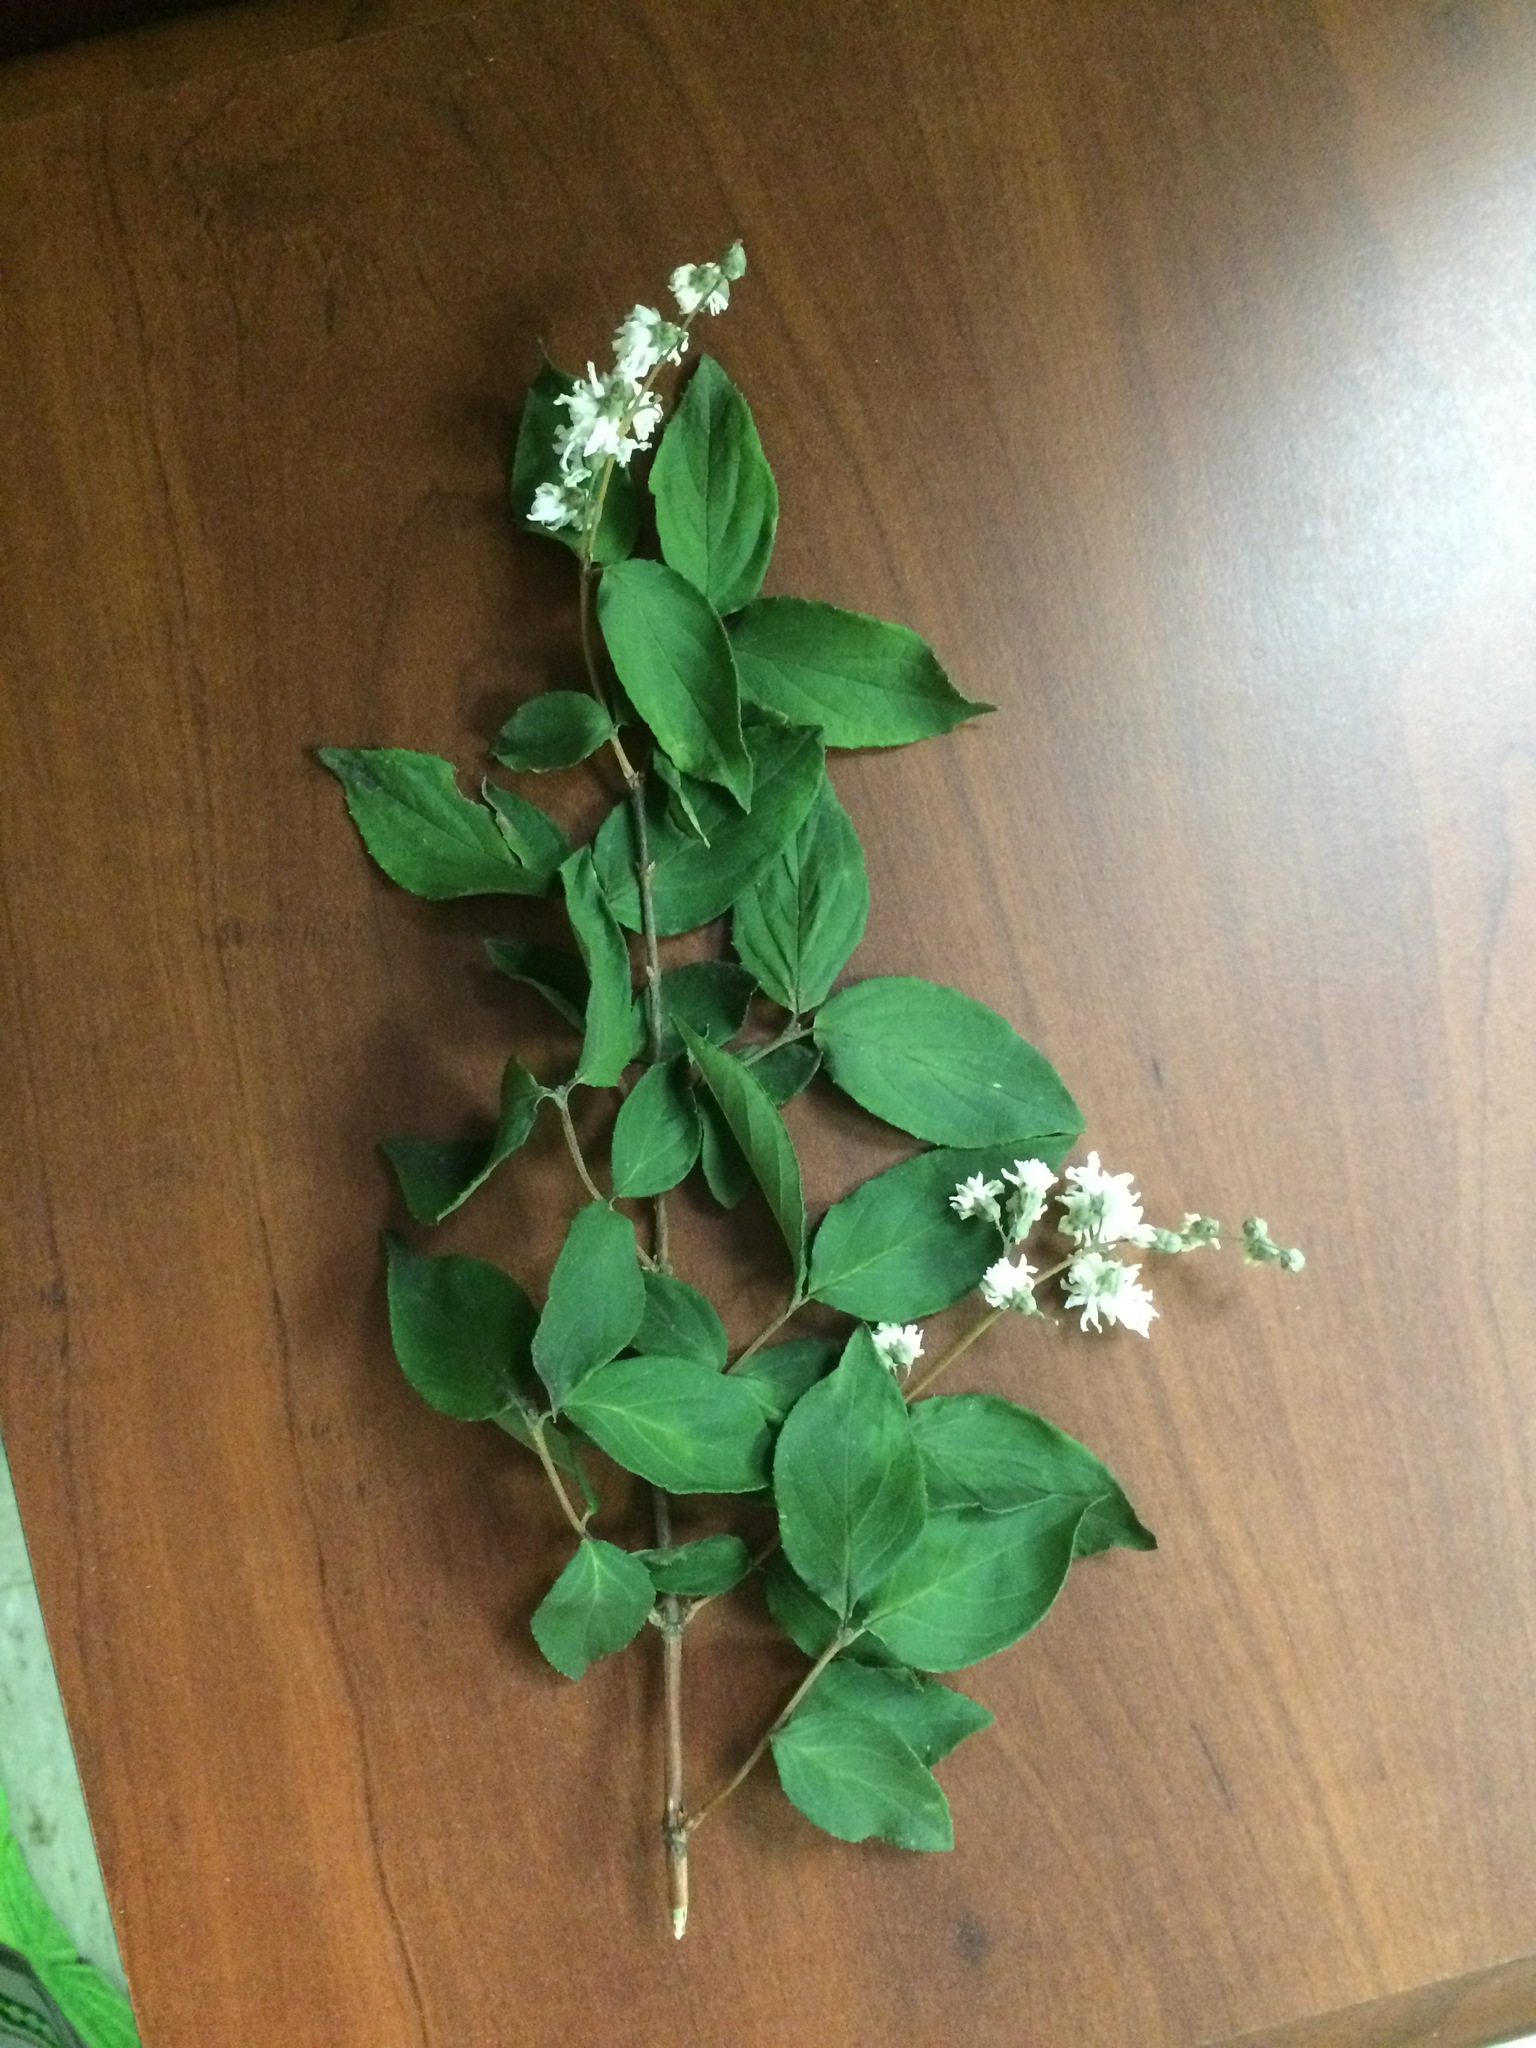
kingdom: Plantae
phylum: Tracheophyta
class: Magnoliopsida
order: Cornales
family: Hydrangeaceae
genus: Deutzia
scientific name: Deutzia crenata
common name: Deutzia
